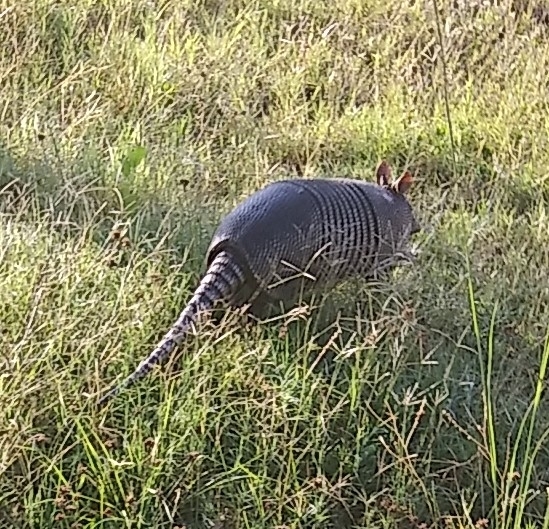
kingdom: Animalia
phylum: Chordata
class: Mammalia
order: Cingulata
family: Dasypodidae
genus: Dasypus
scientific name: Dasypus novemcinctus
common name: Nine-banded armadillo
